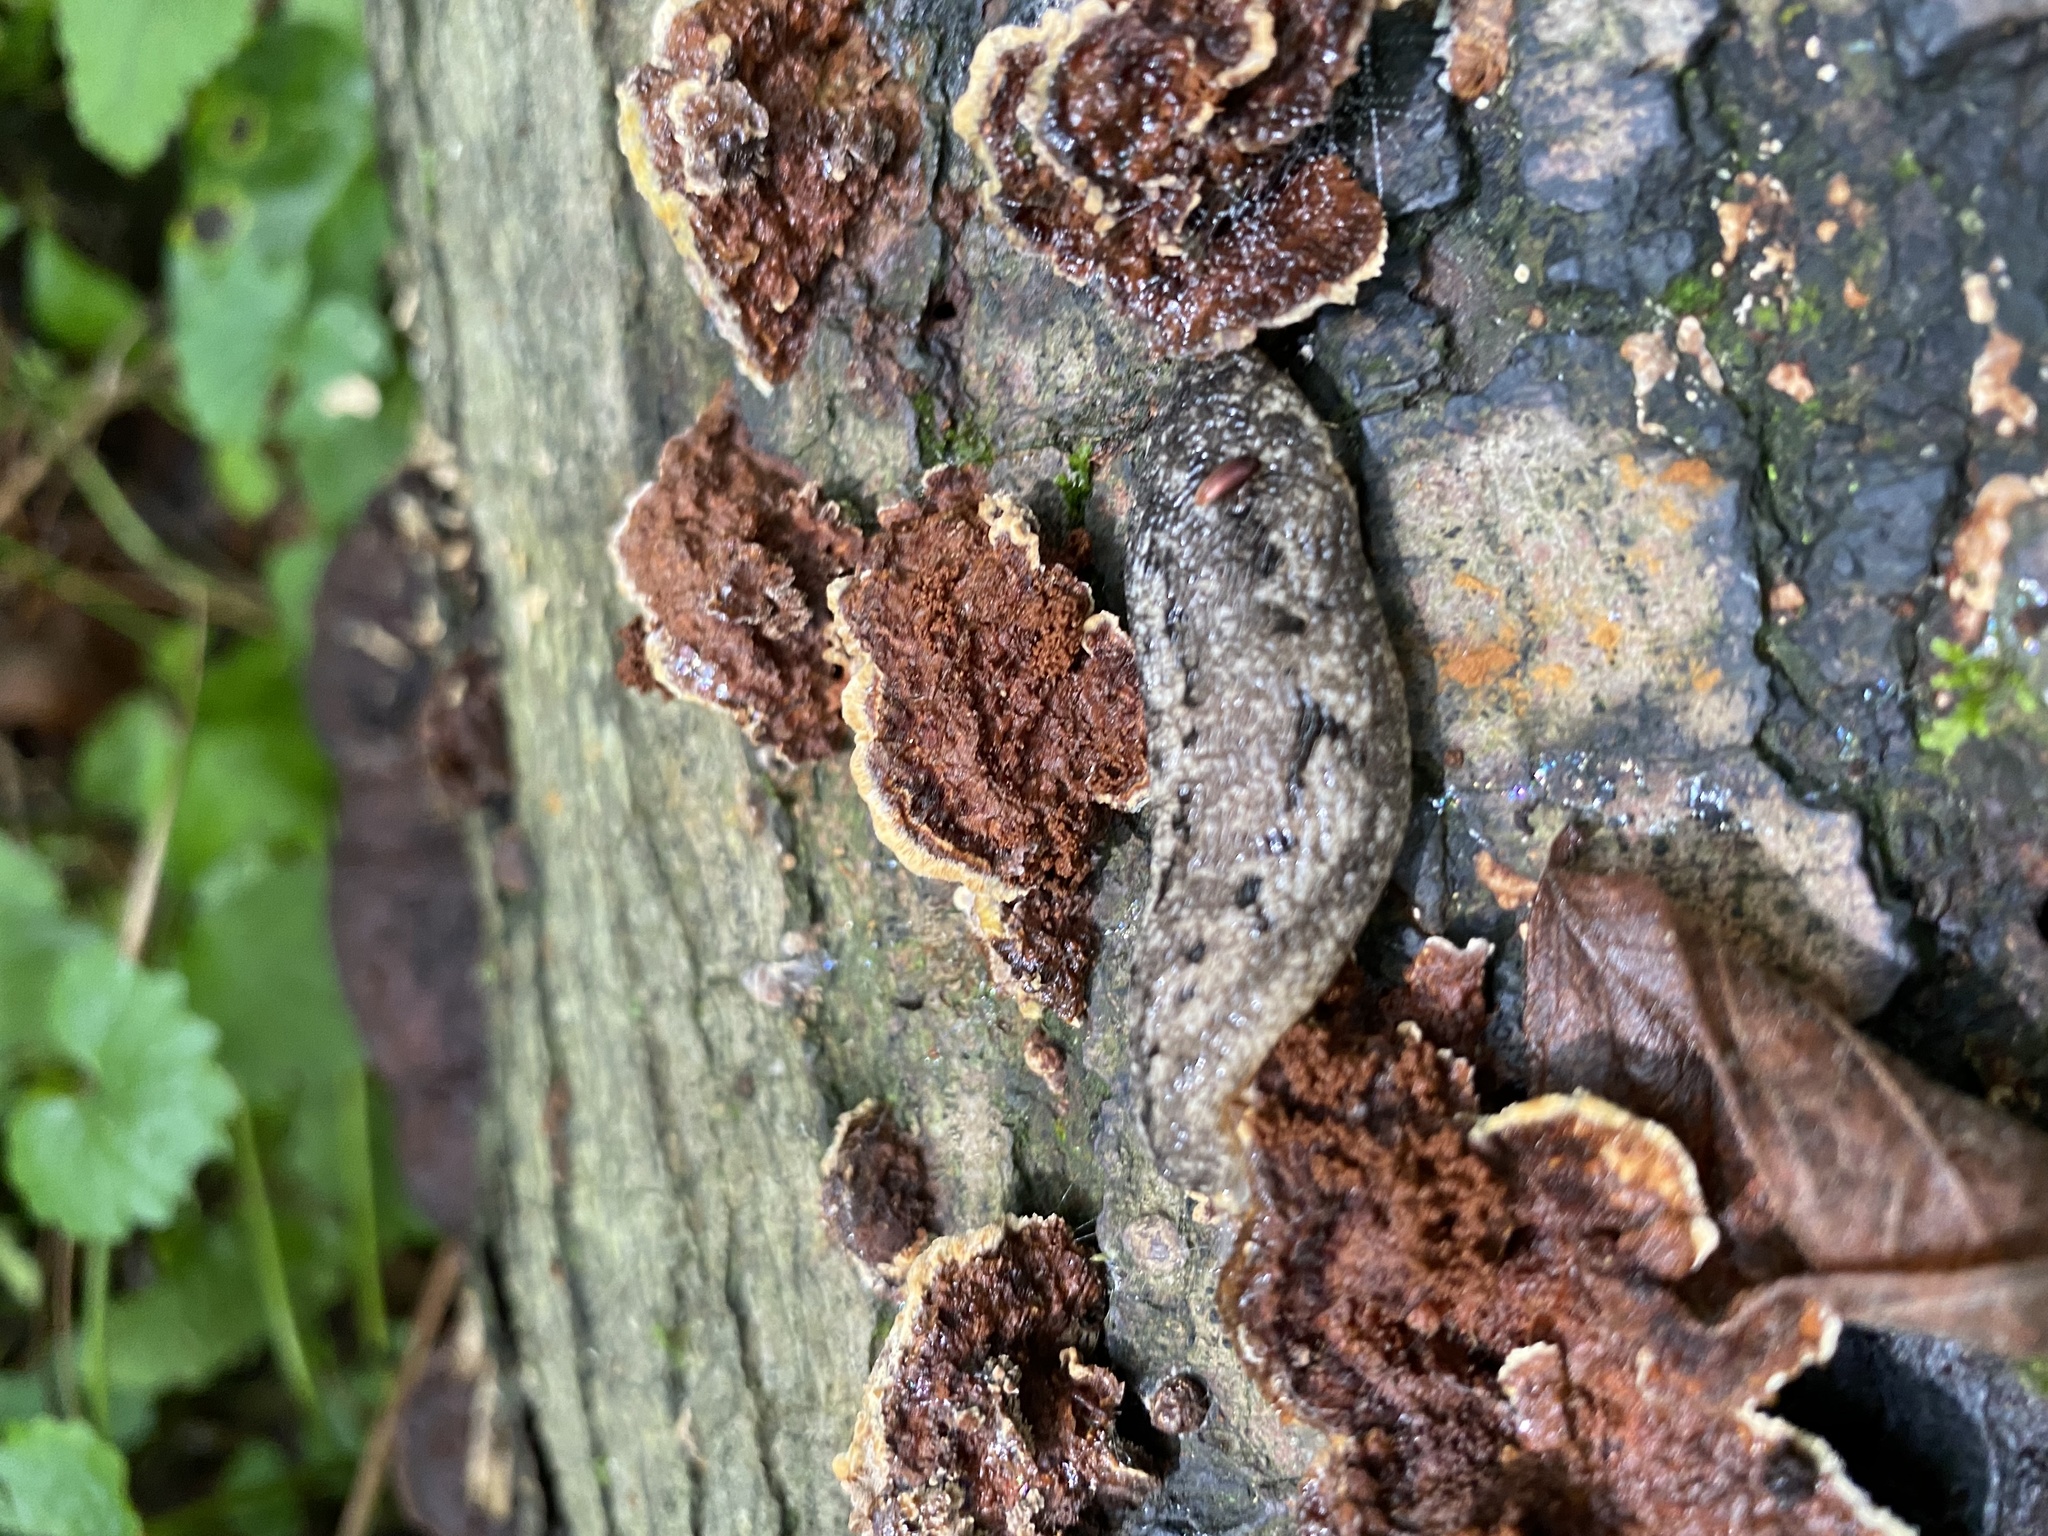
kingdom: Fungi
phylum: Basidiomycota
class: Agaricomycetes
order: Hymenochaetales
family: Hymenochaetaceae
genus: Phellinus
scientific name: Phellinus gilvus
